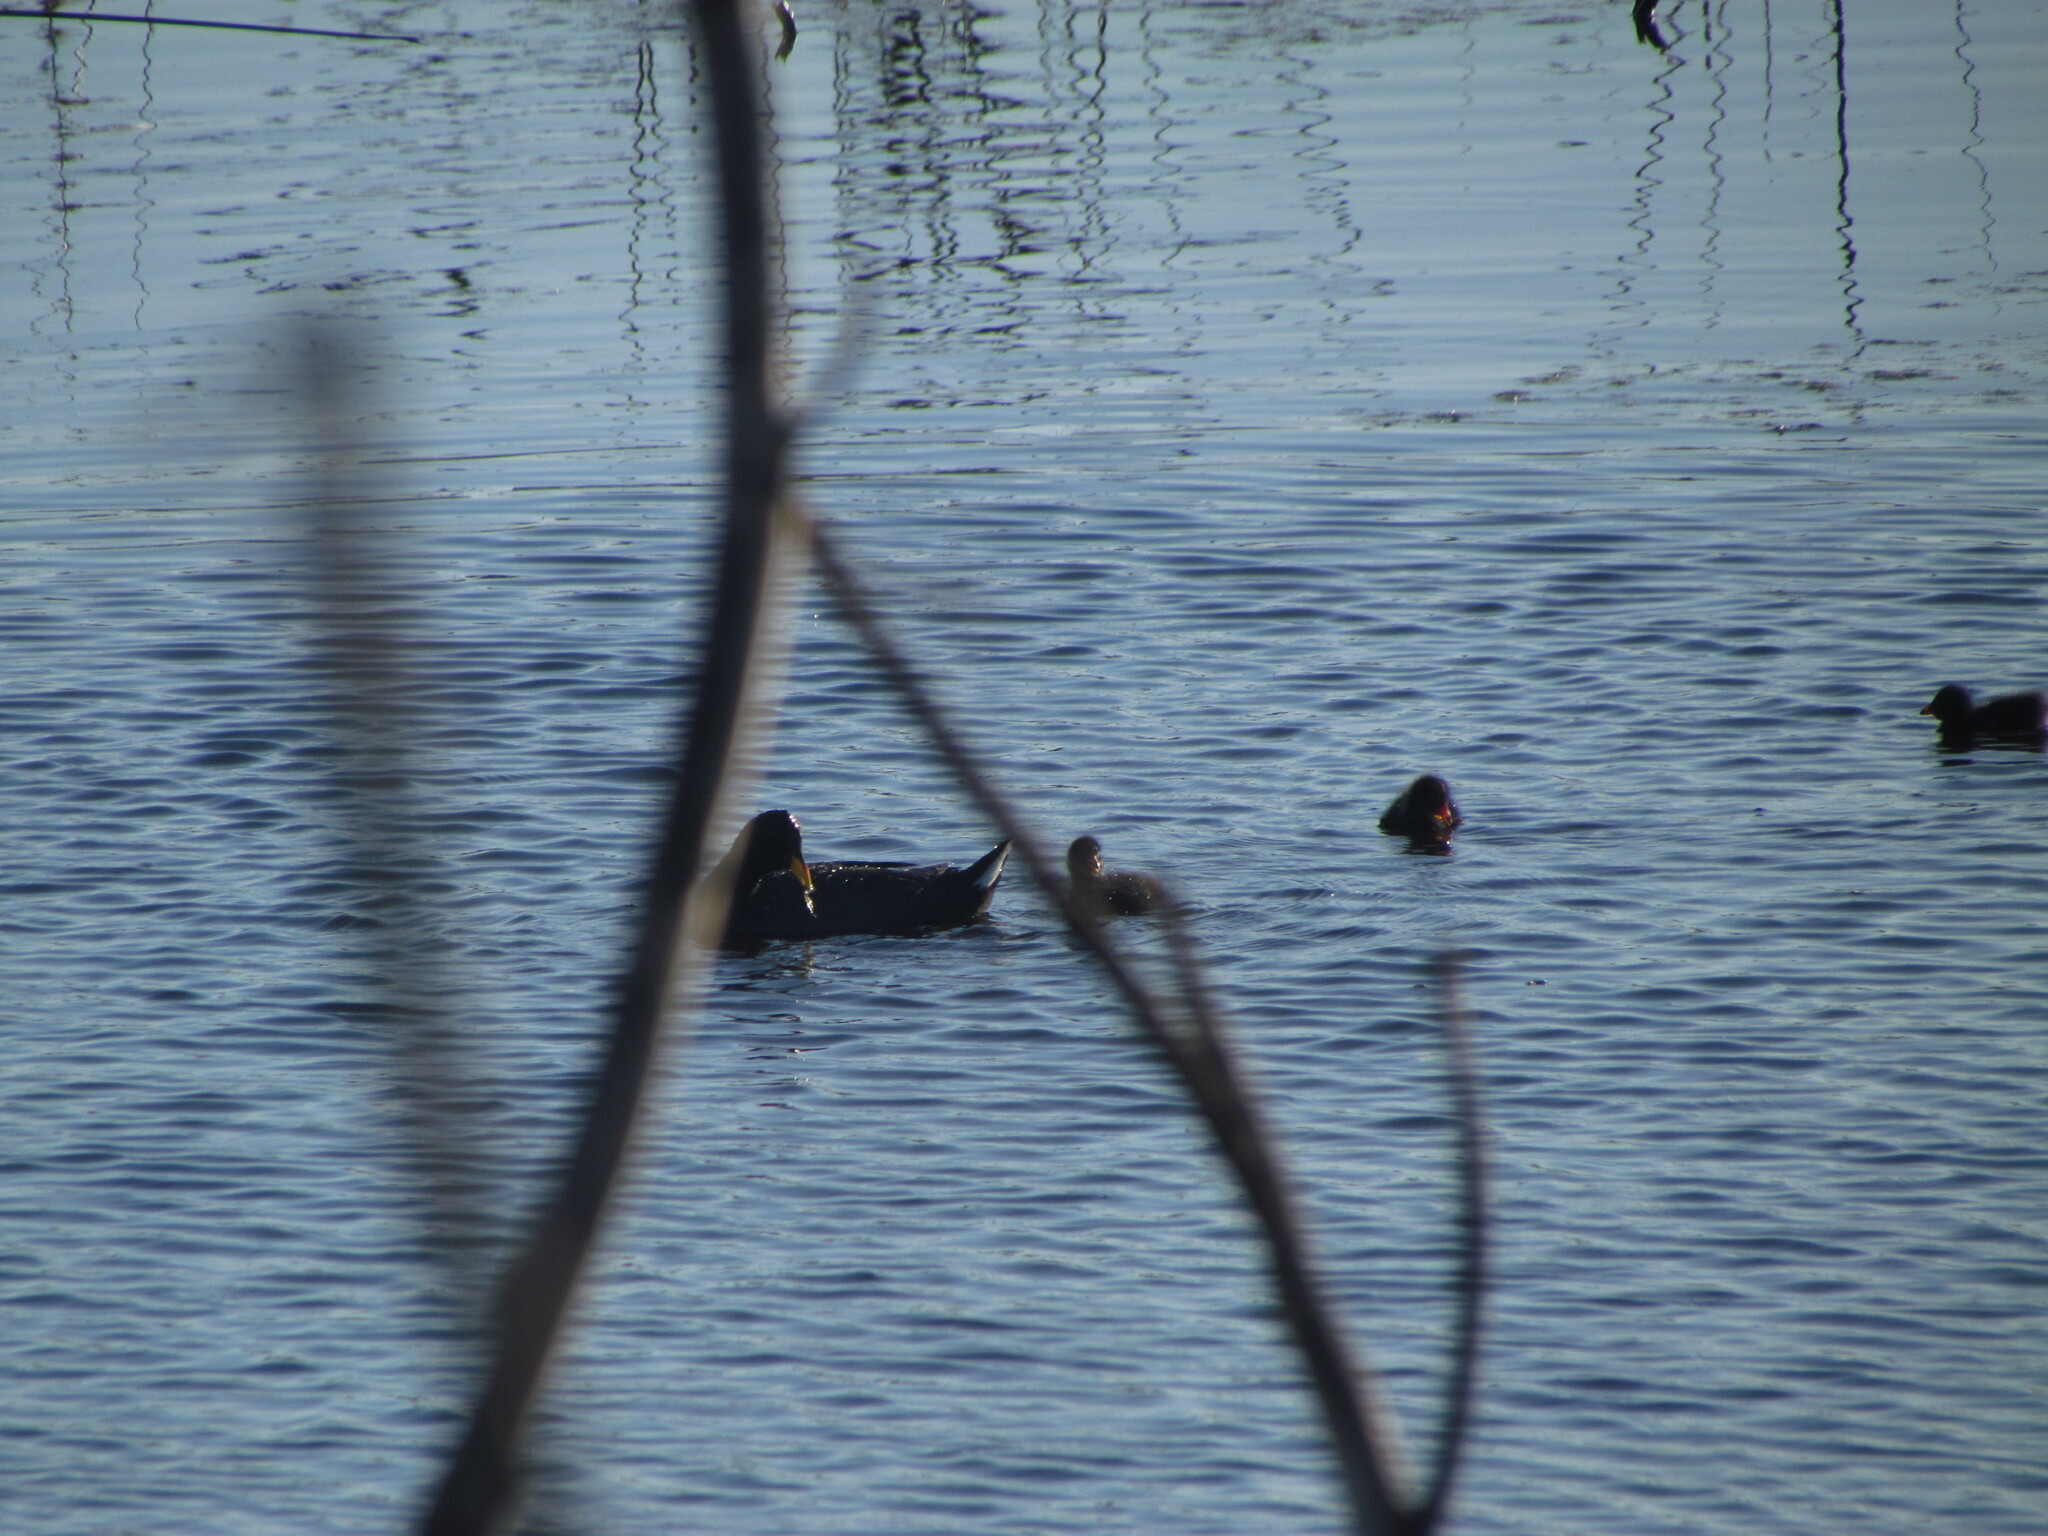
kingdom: Animalia
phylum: Chordata
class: Aves
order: Gruiformes
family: Rallidae
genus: Fulica
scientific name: Fulica rufifrons
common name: Red-fronted coot
